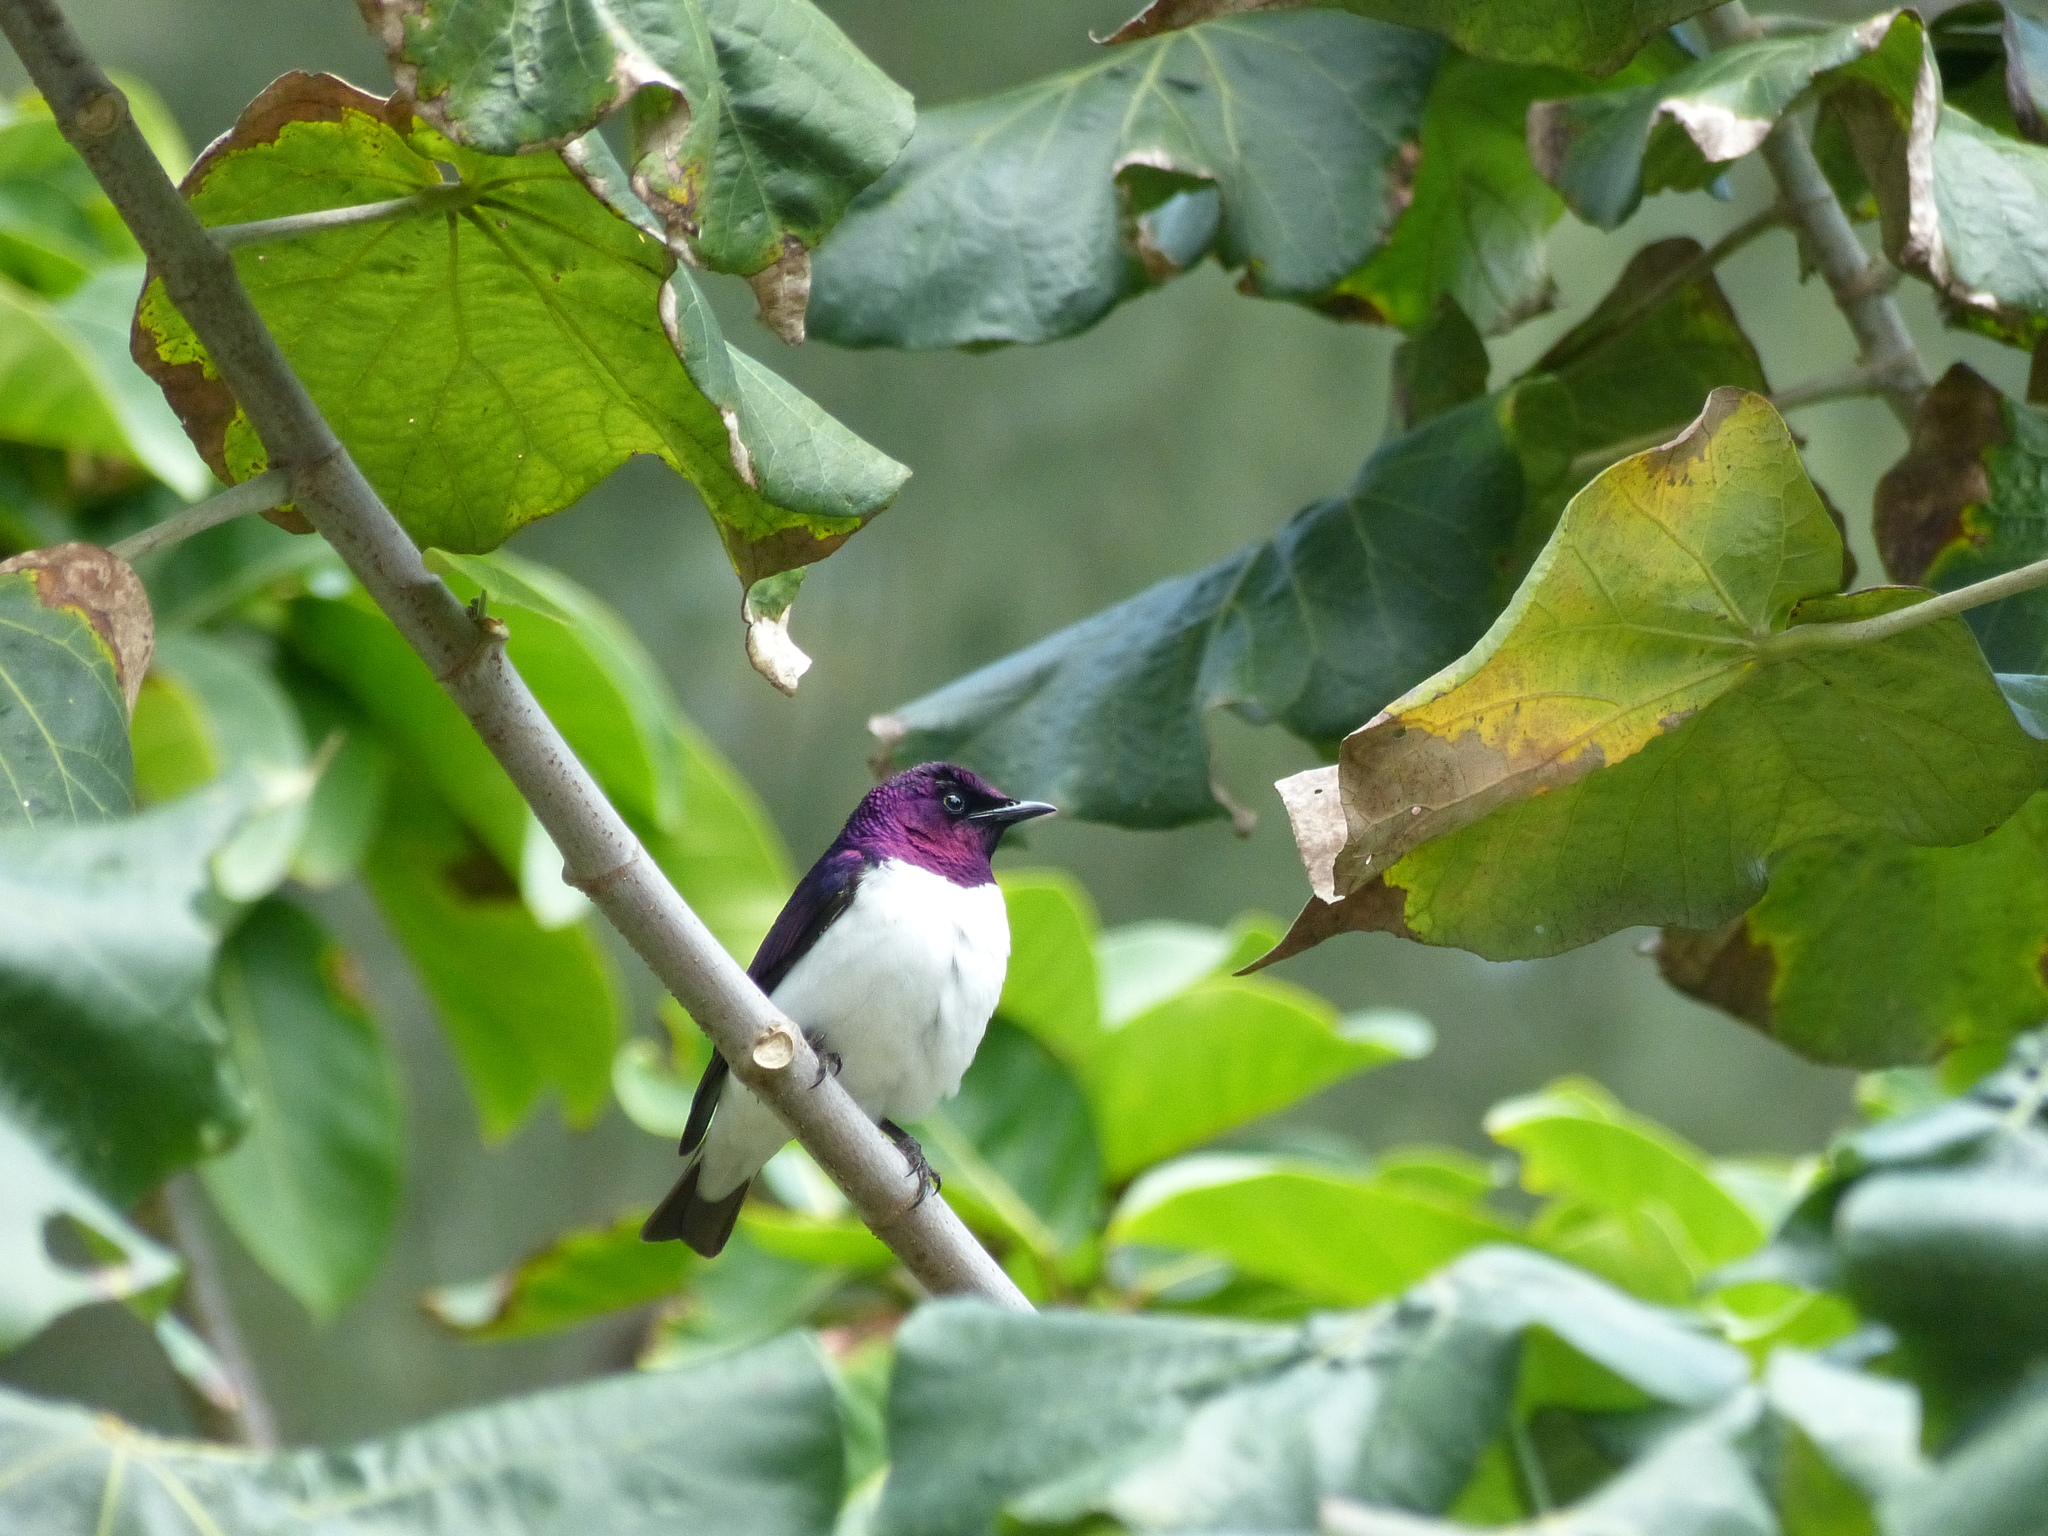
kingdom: Animalia
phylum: Chordata
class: Aves
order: Passeriformes
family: Sturnidae
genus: Cinnyricinclus
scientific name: Cinnyricinclus leucogaster
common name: Violet-backed starling
